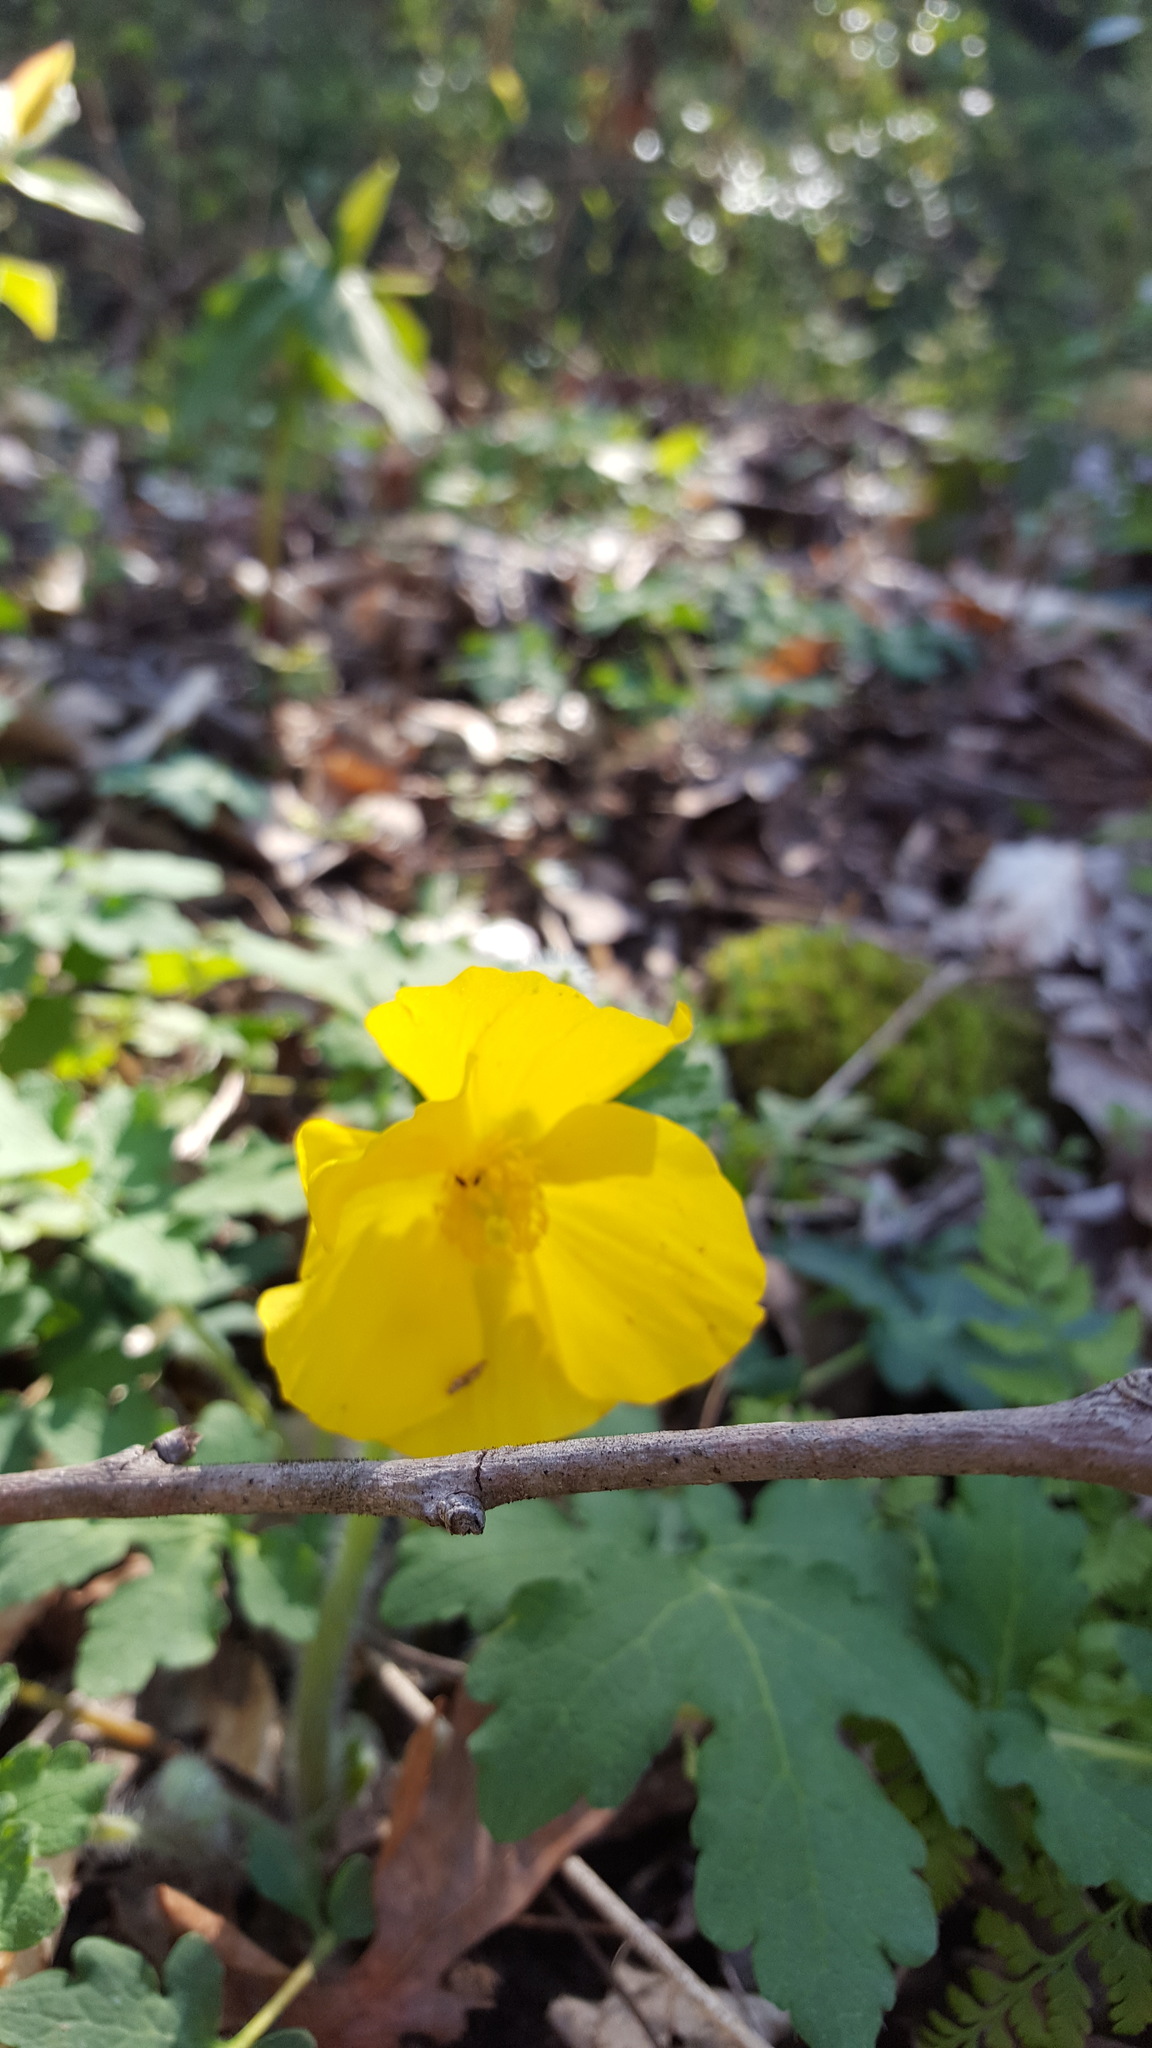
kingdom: Plantae
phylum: Tracheophyta
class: Magnoliopsida
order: Ranunculales
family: Papaveraceae
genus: Stylophorum
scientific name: Stylophorum diphyllum
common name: Celandine poppy
